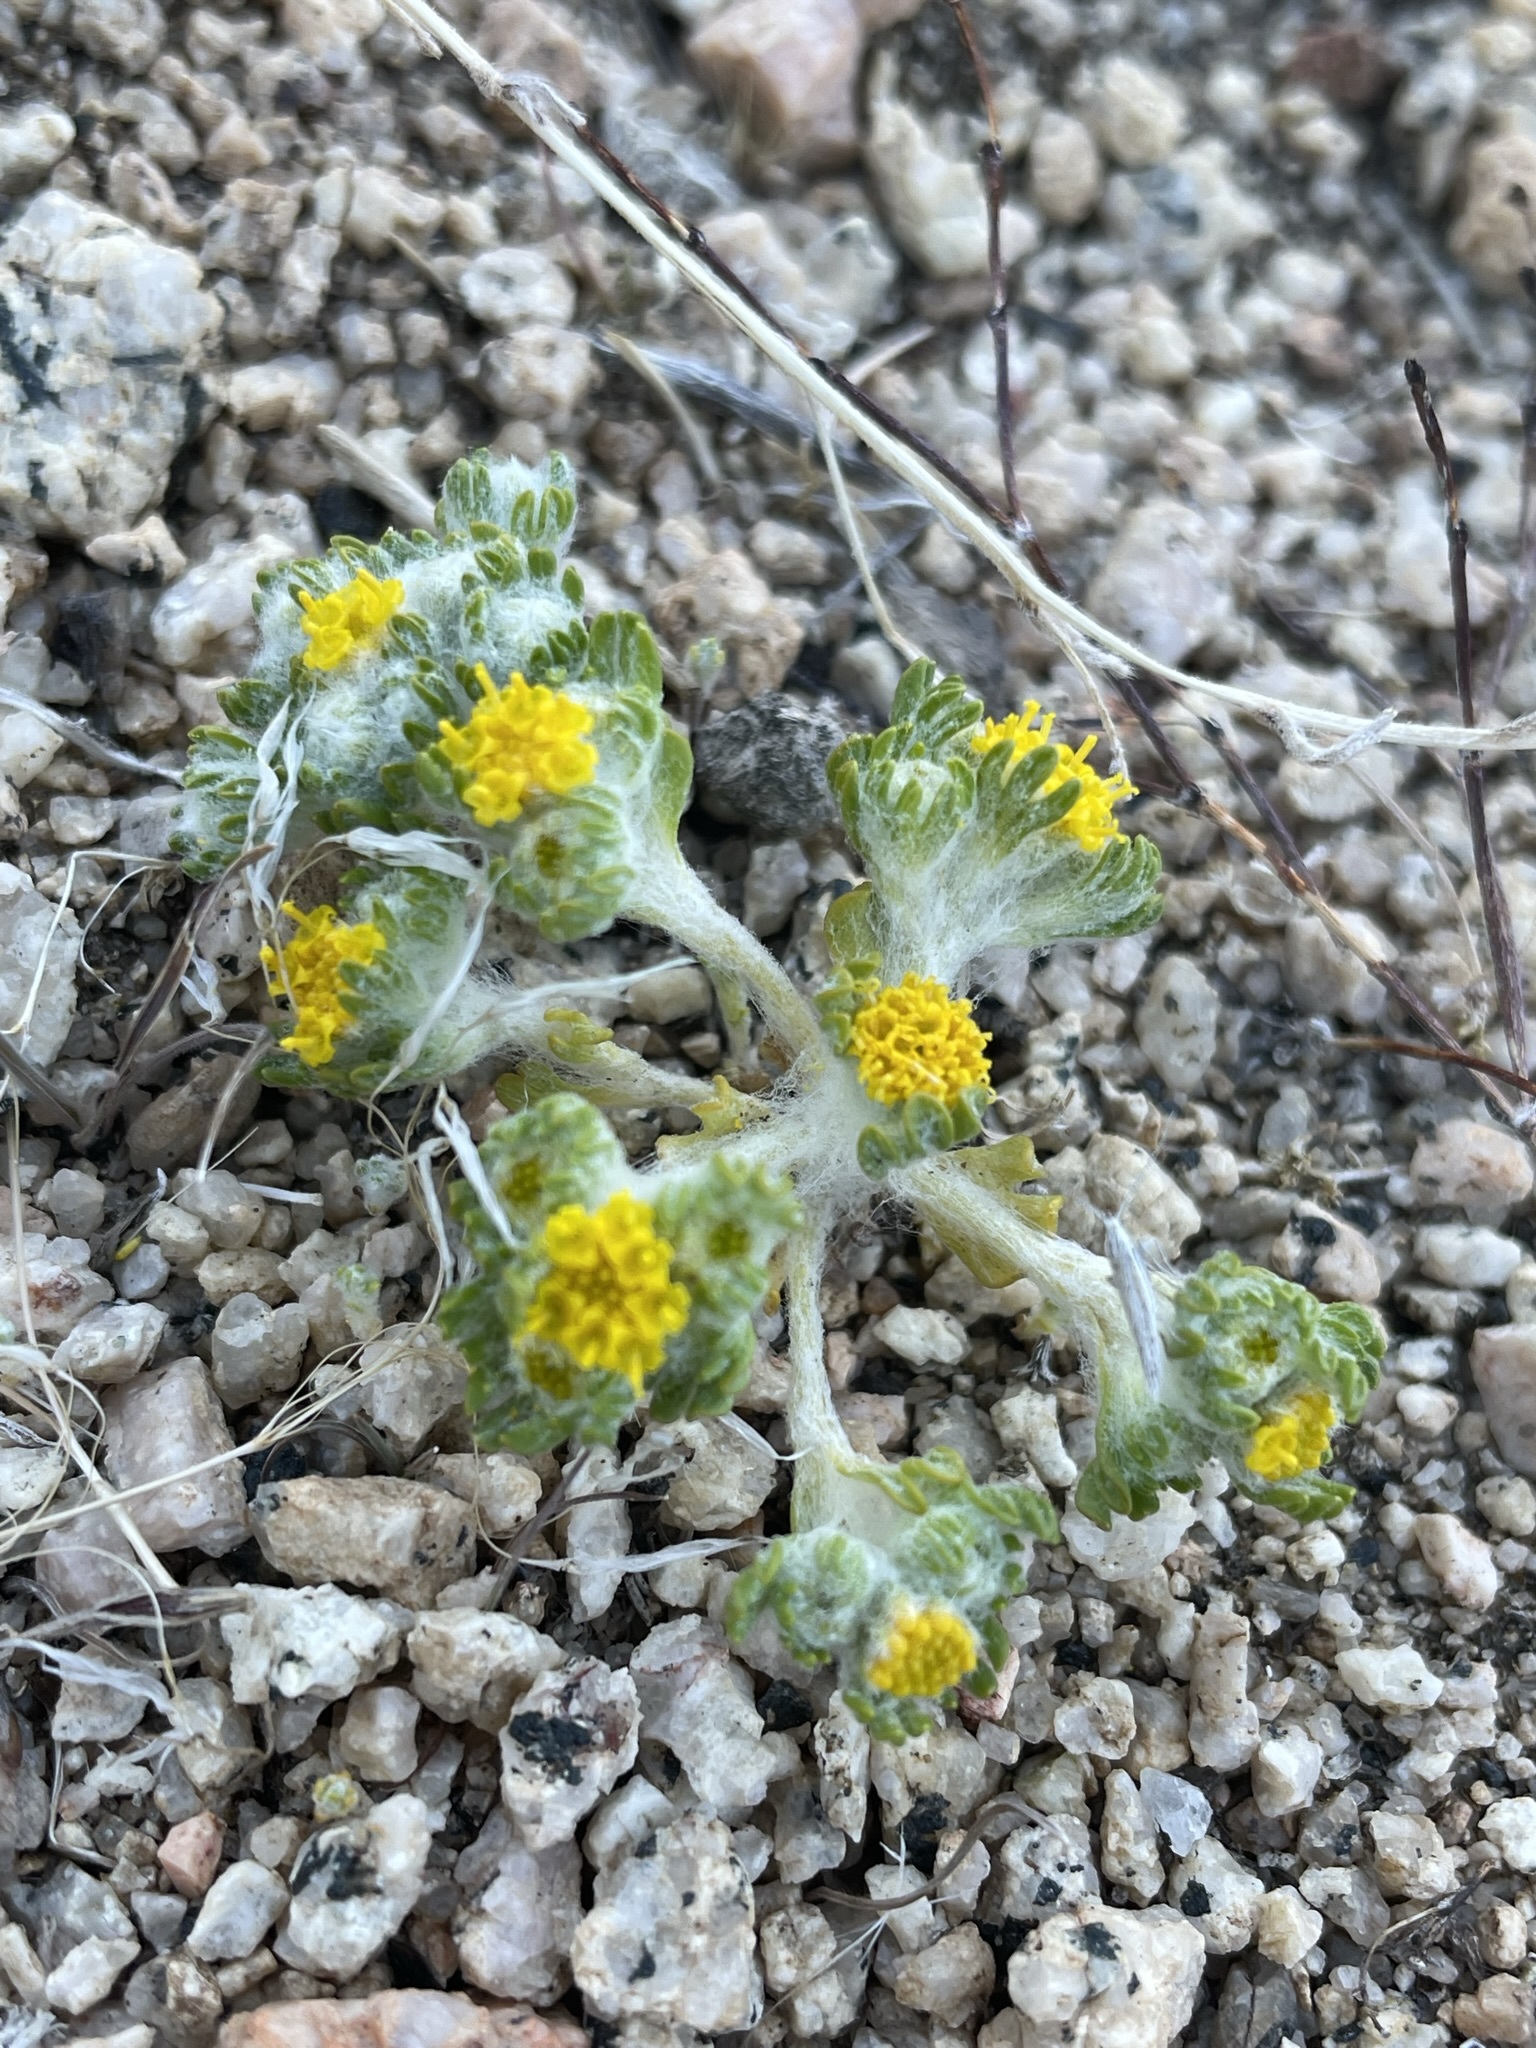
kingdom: Plantae
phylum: Tracheophyta
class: Magnoliopsida
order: Asterales
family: Asteraceae
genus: Eriophyllum
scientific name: Eriophyllum pringlei
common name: Pringle's woolly-sunflower
